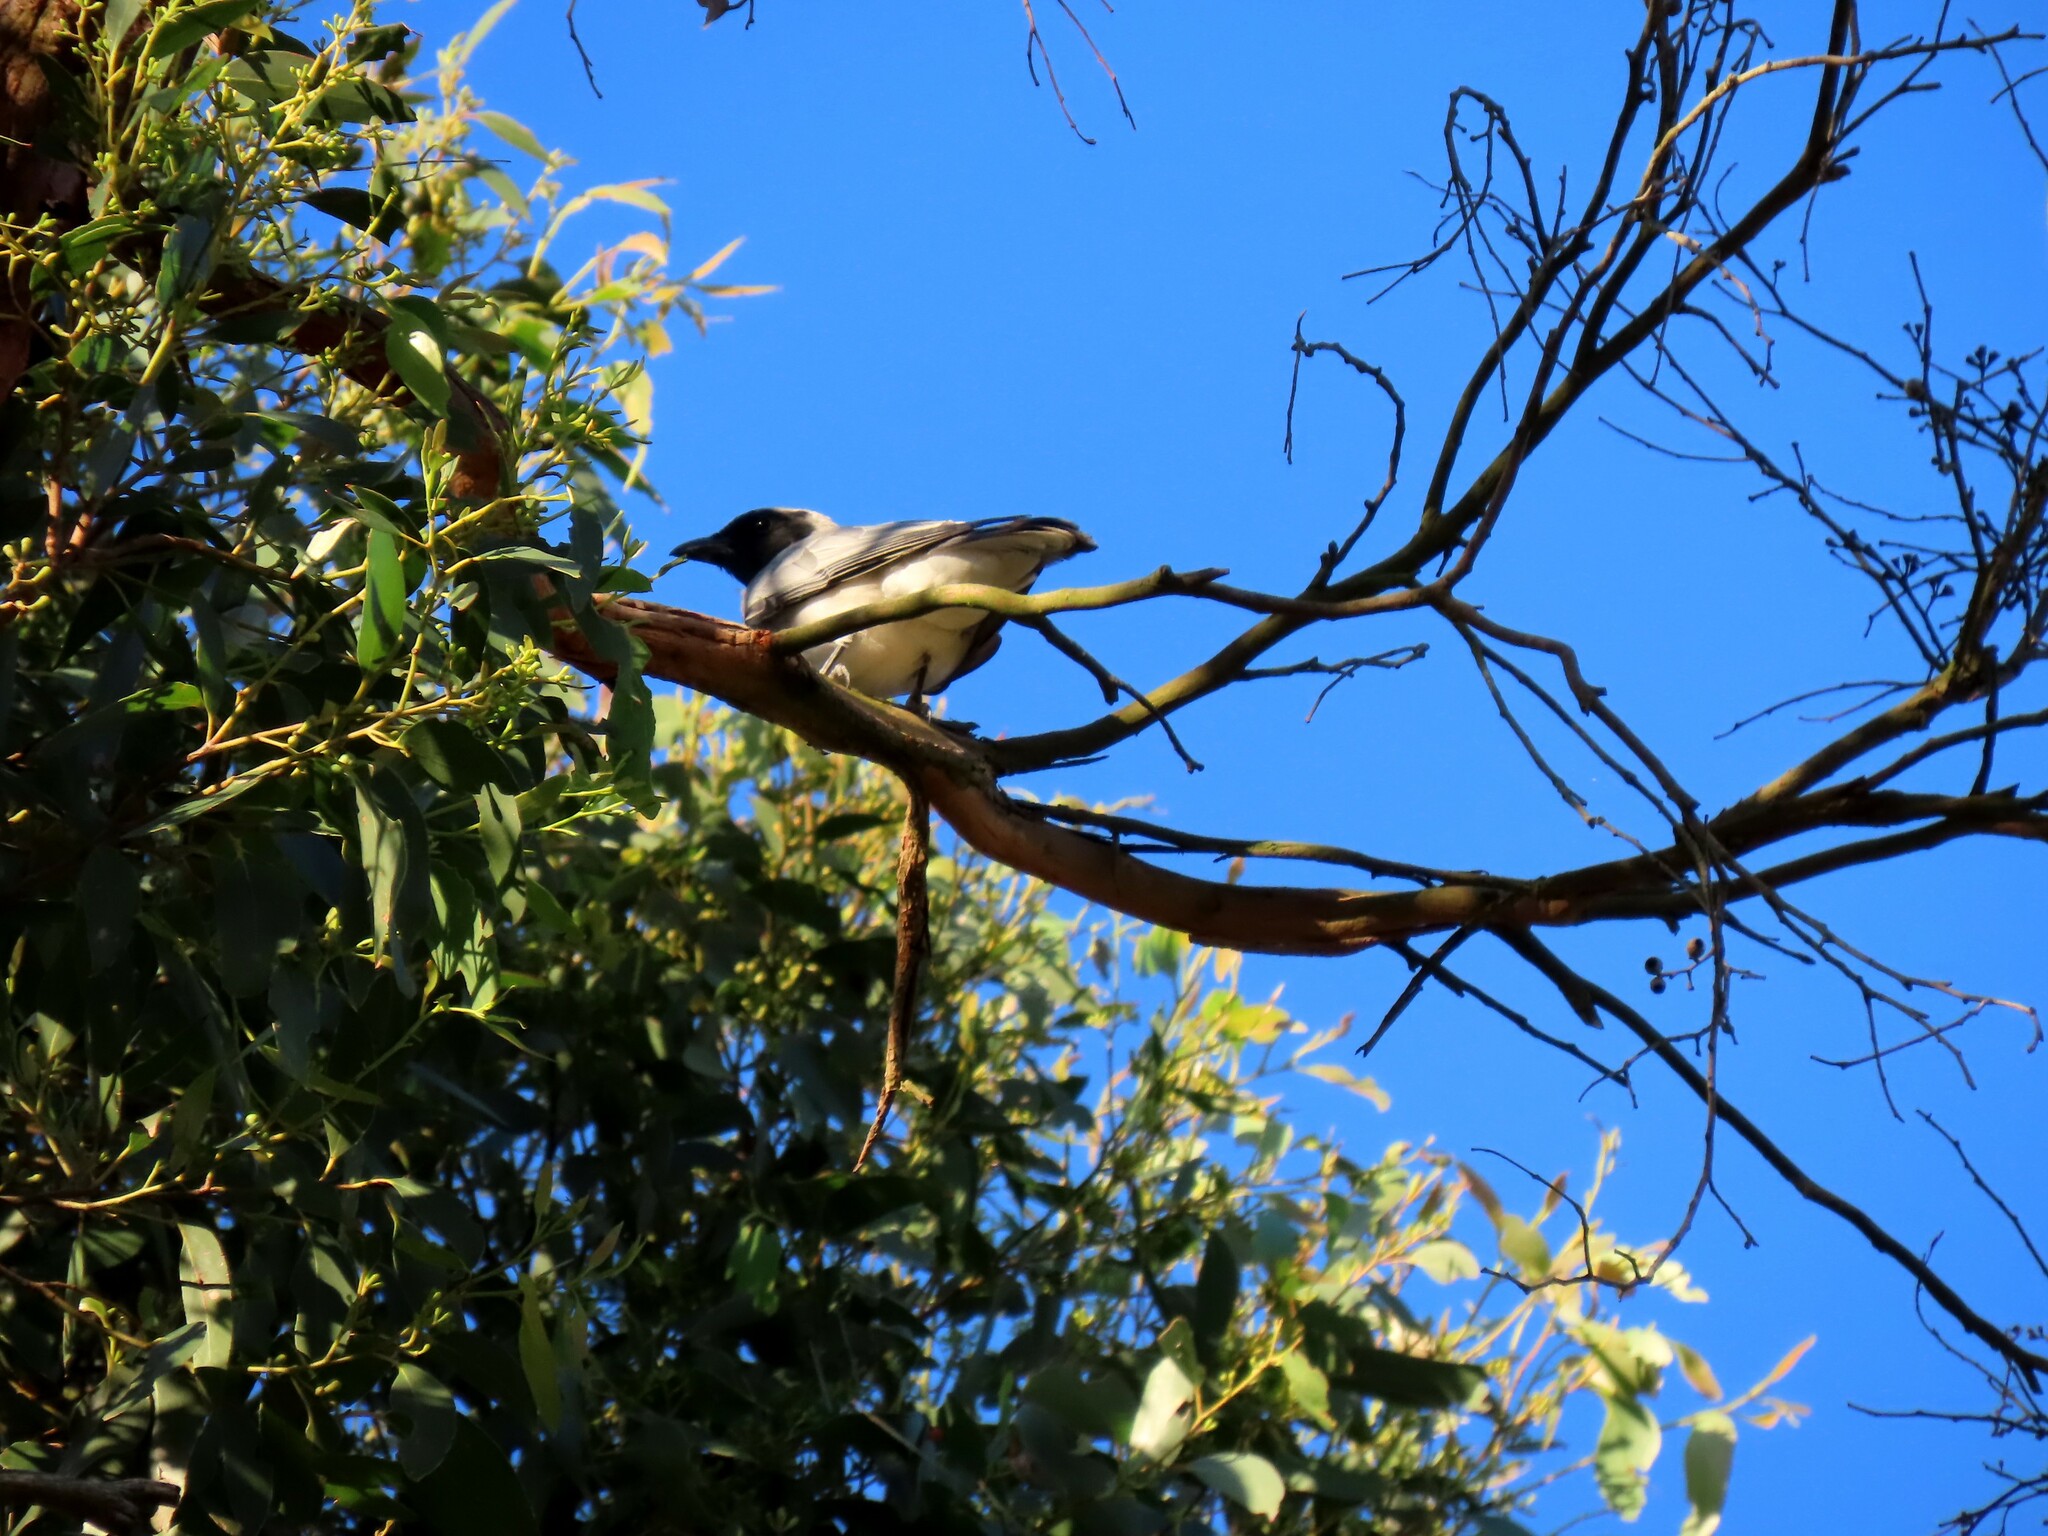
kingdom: Animalia
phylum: Chordata
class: Aves
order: Passeriformes
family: Campephagidae
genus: Coracina
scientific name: Coracina novaehollandiae
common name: Black-faced cuckooshrike
